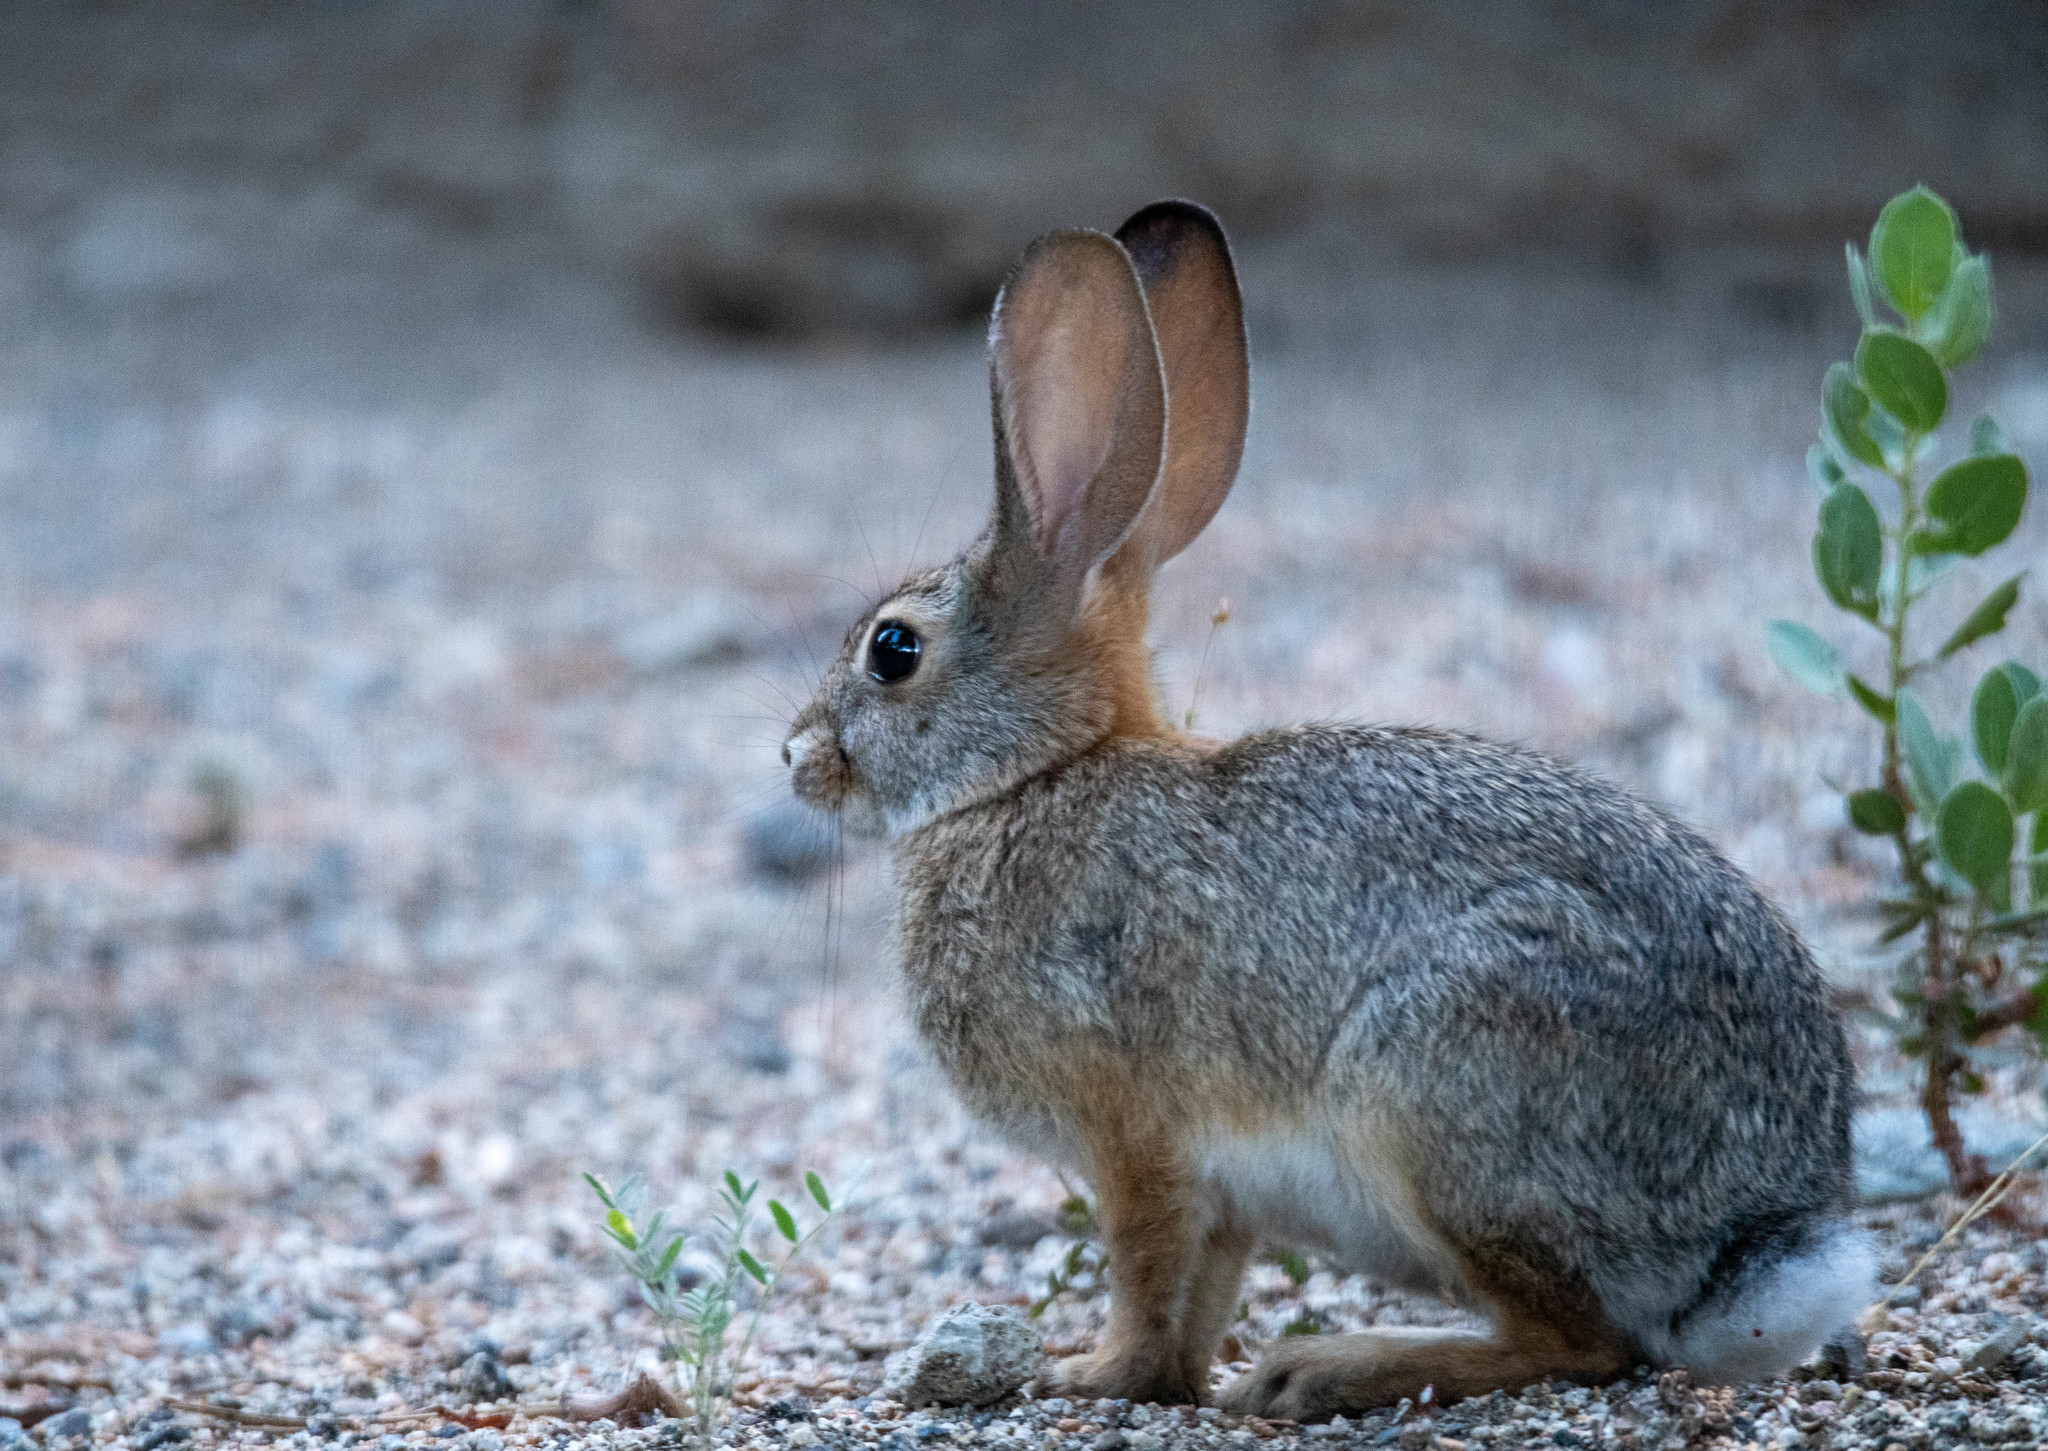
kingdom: Animalia
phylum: Chordata
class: Mammalia
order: Lagomorpha
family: Leporidae
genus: Sylvilagus
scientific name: Sylvilagus audubonii
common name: Desert cottontail
